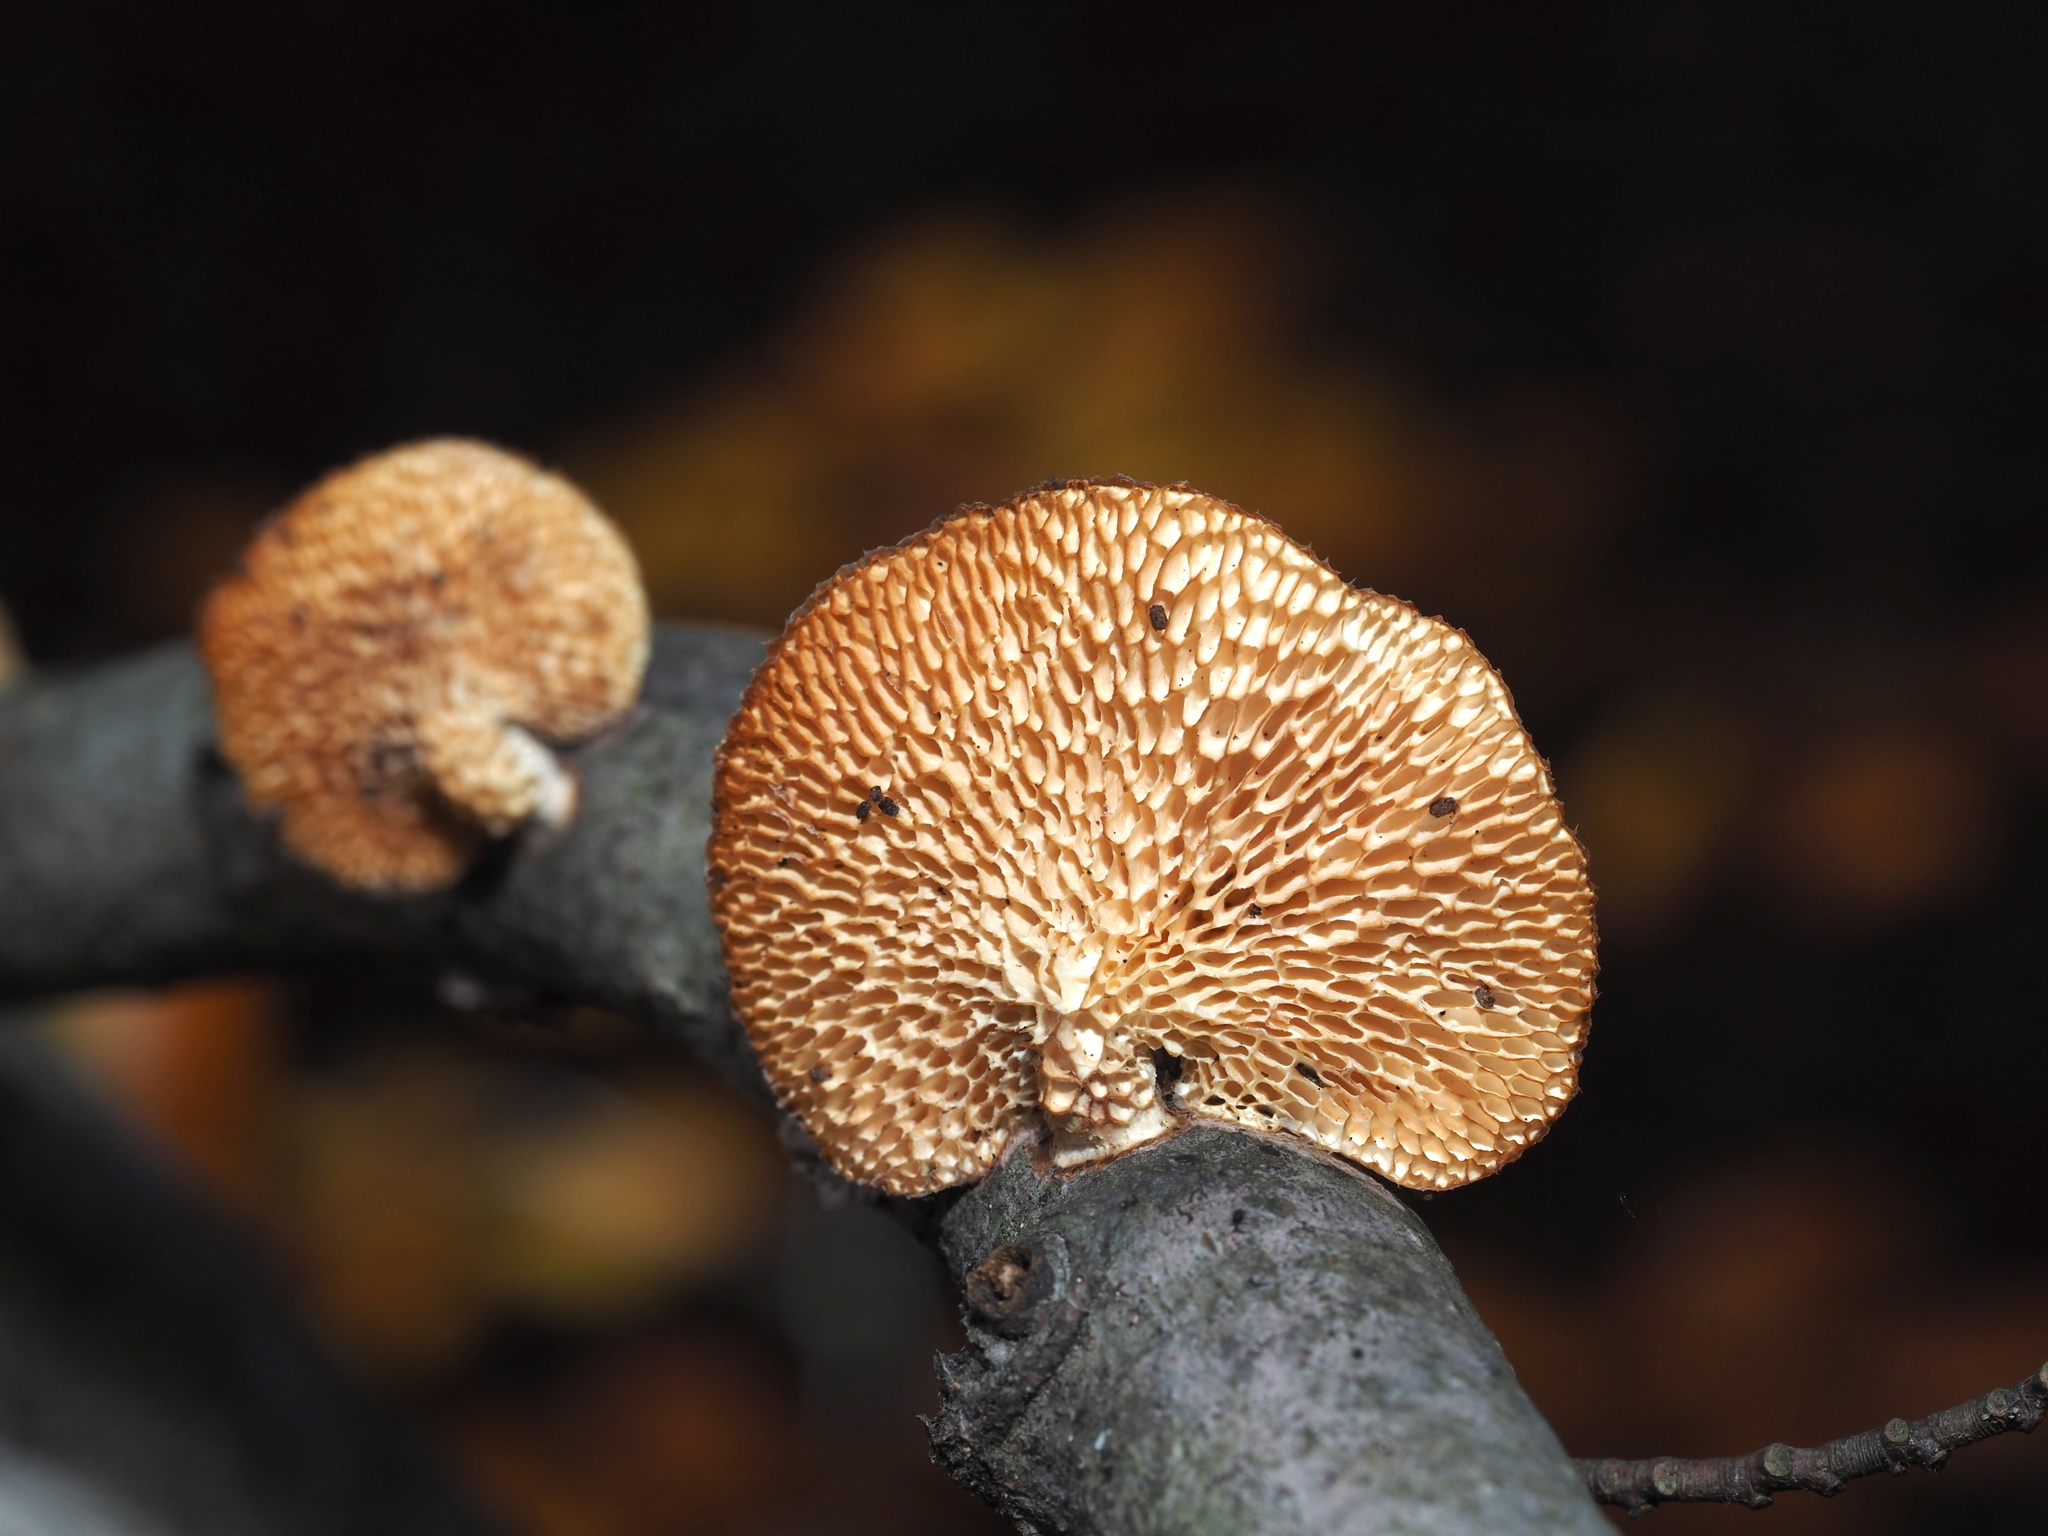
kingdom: Fungi
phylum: Basidiomycota
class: Agaricomycetes
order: Polyporales
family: Polyporaceae
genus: Neofavolus
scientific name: Neofavolus alveolaris
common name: Hexagonal-pored polypore
